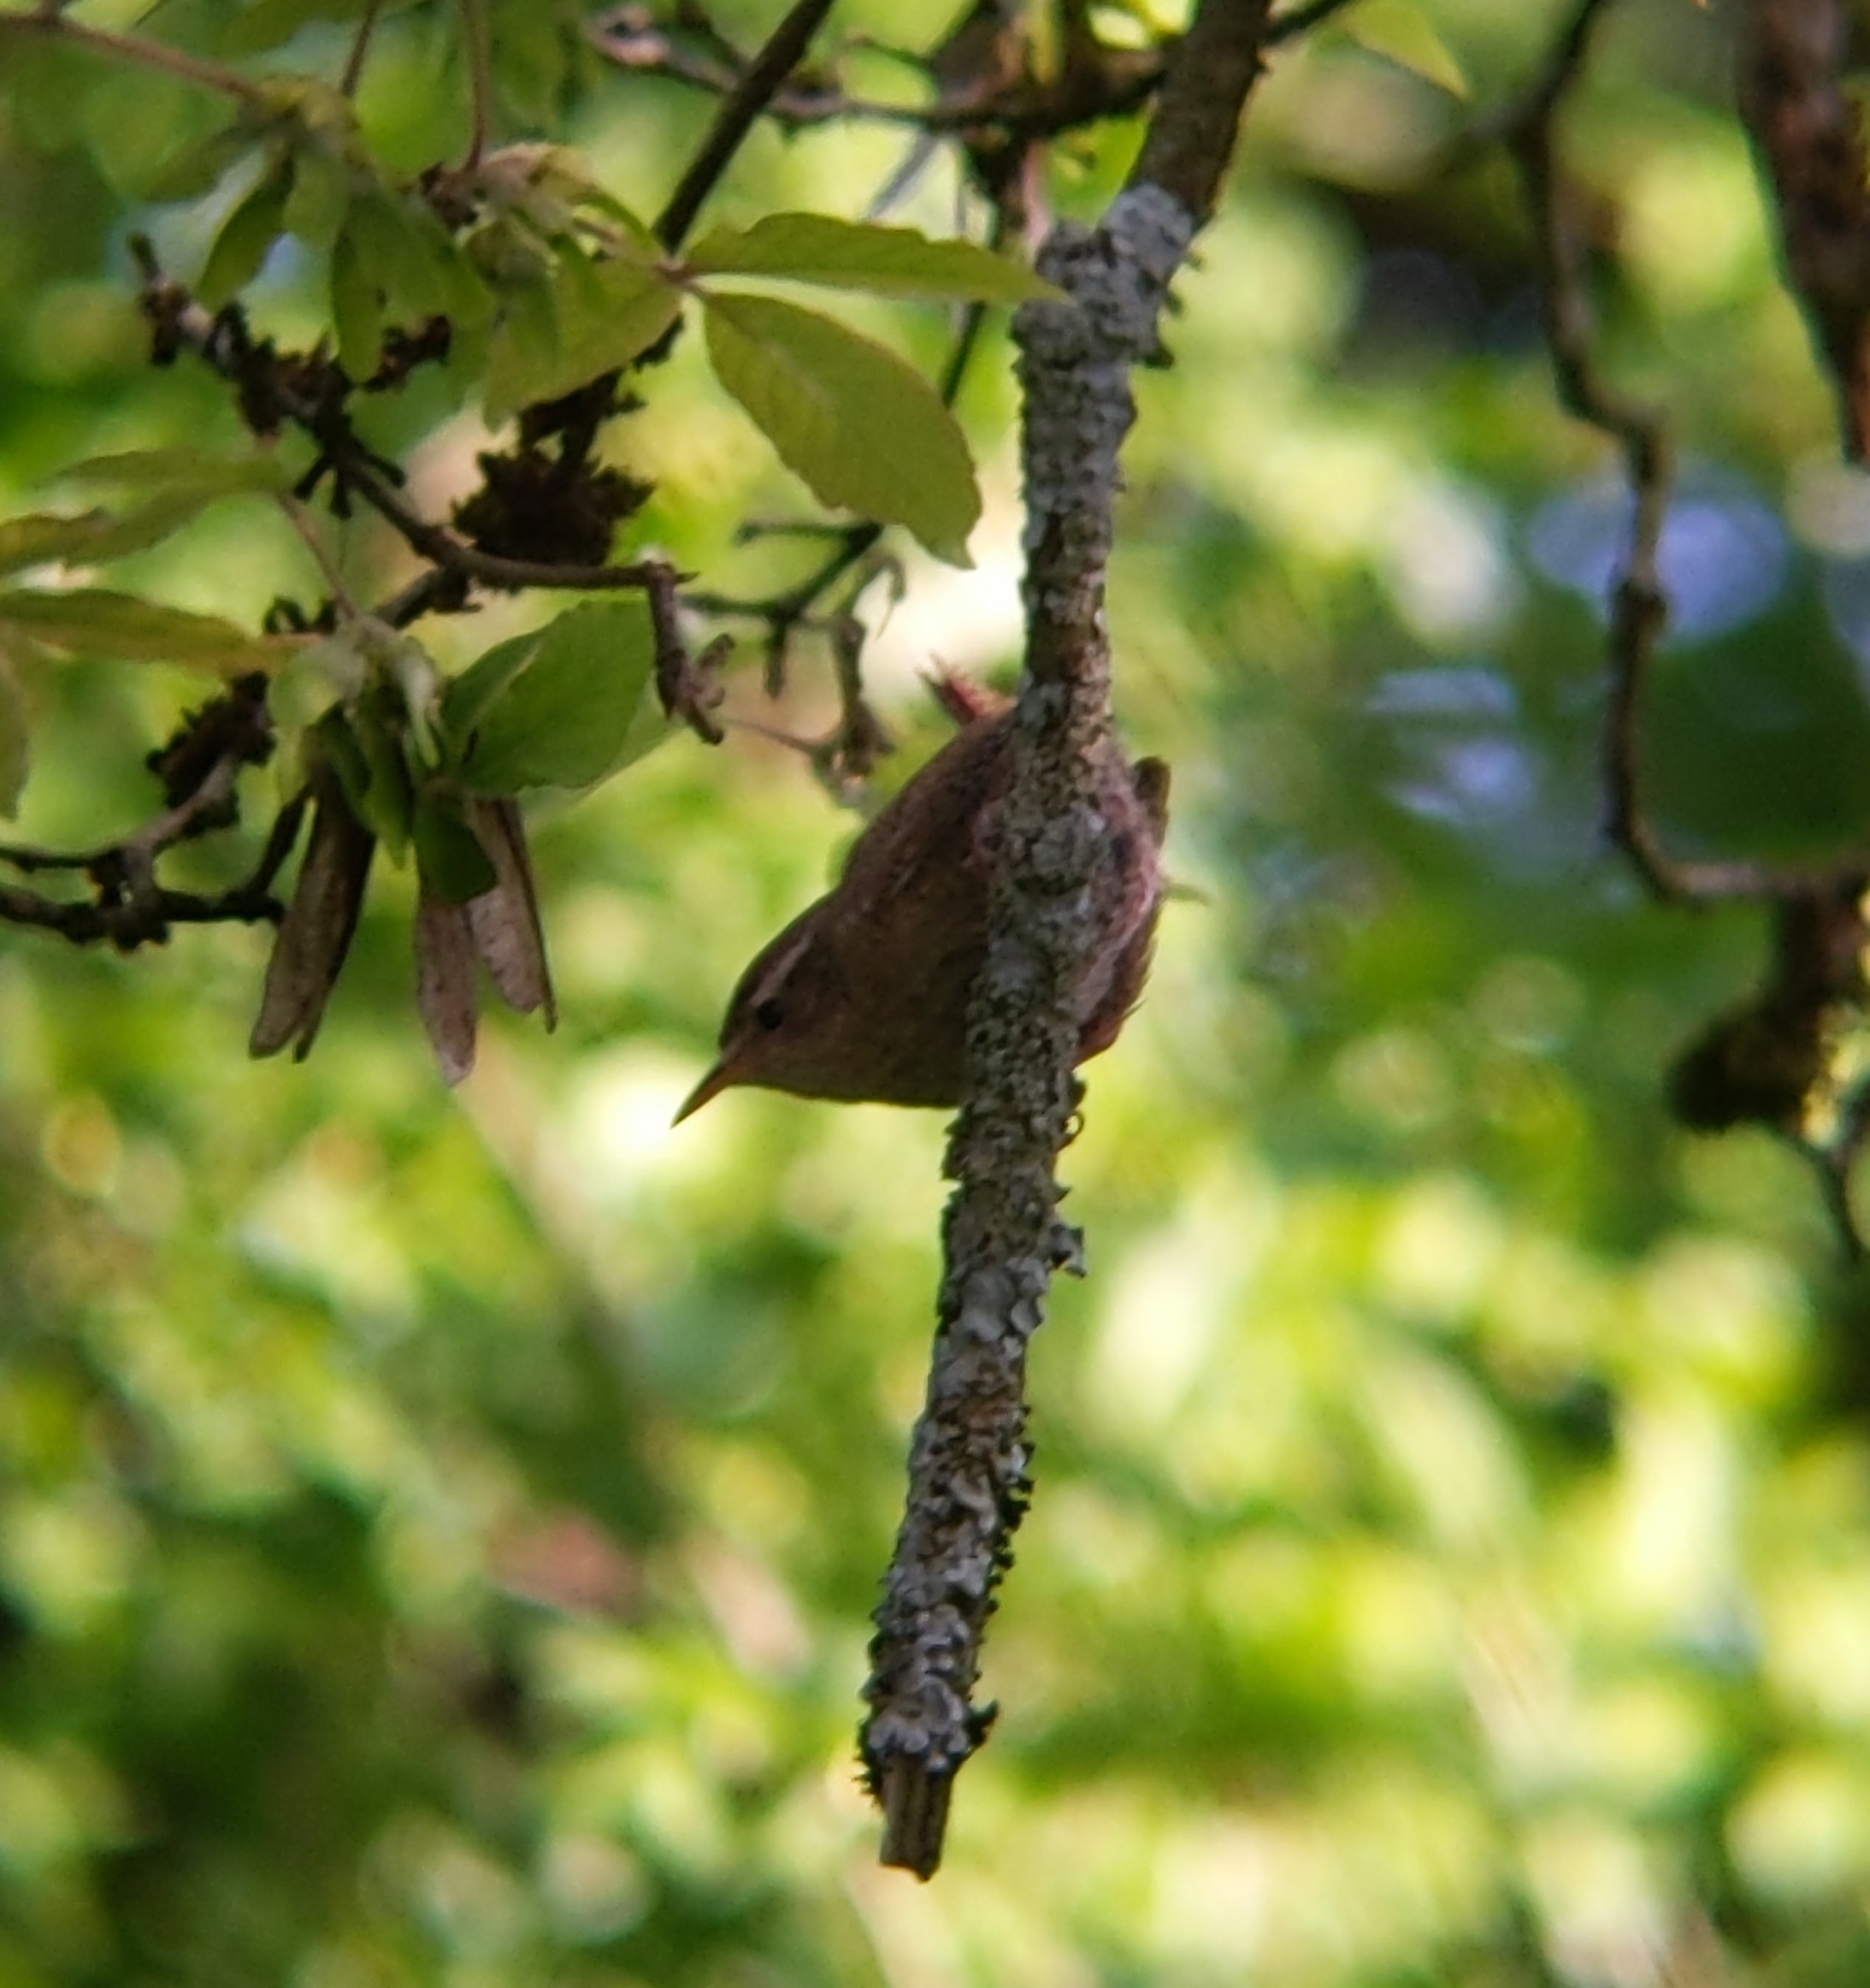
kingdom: Animalia
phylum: Chordata
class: Aves
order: Passeriformes
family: Troglodytidae
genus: Troglodytes
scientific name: Troglodytes troglodytes
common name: Eurasian wren
